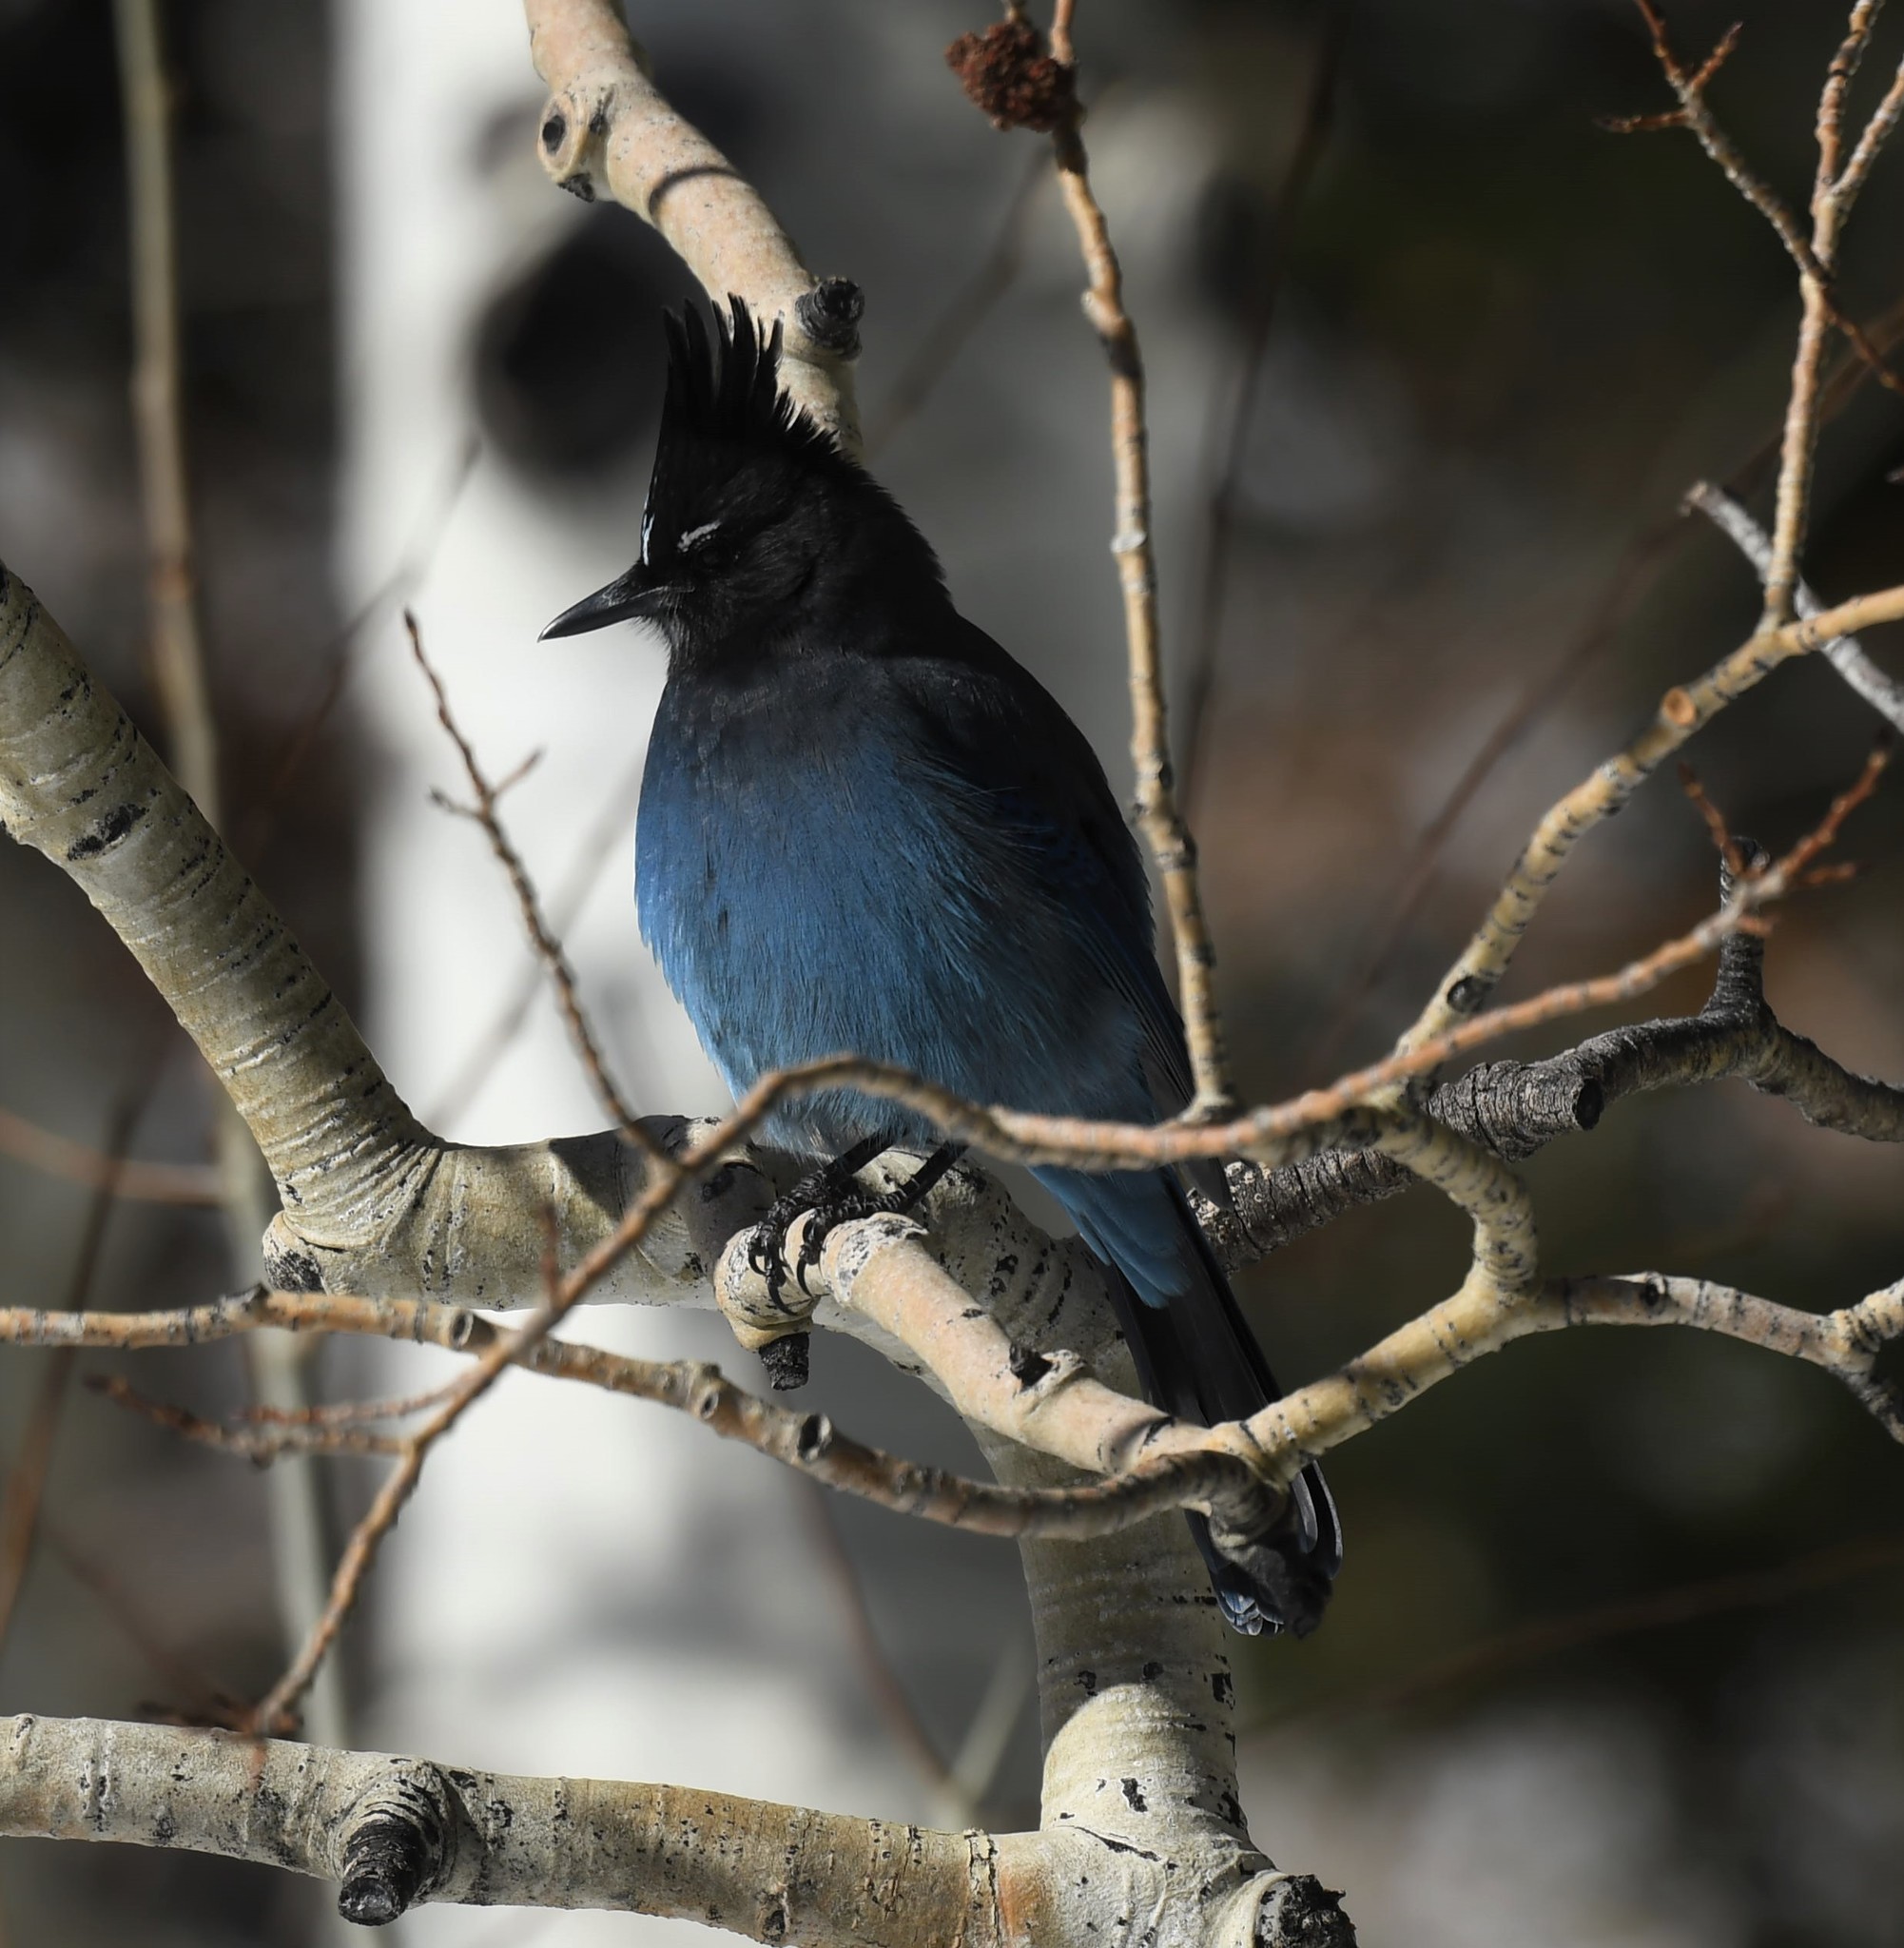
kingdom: Animalia
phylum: Chordata
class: Aves
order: Passeriformes
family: Corvidae
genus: Cyanocitta
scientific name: Cyanocitta stelleri
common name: Steller's jay
